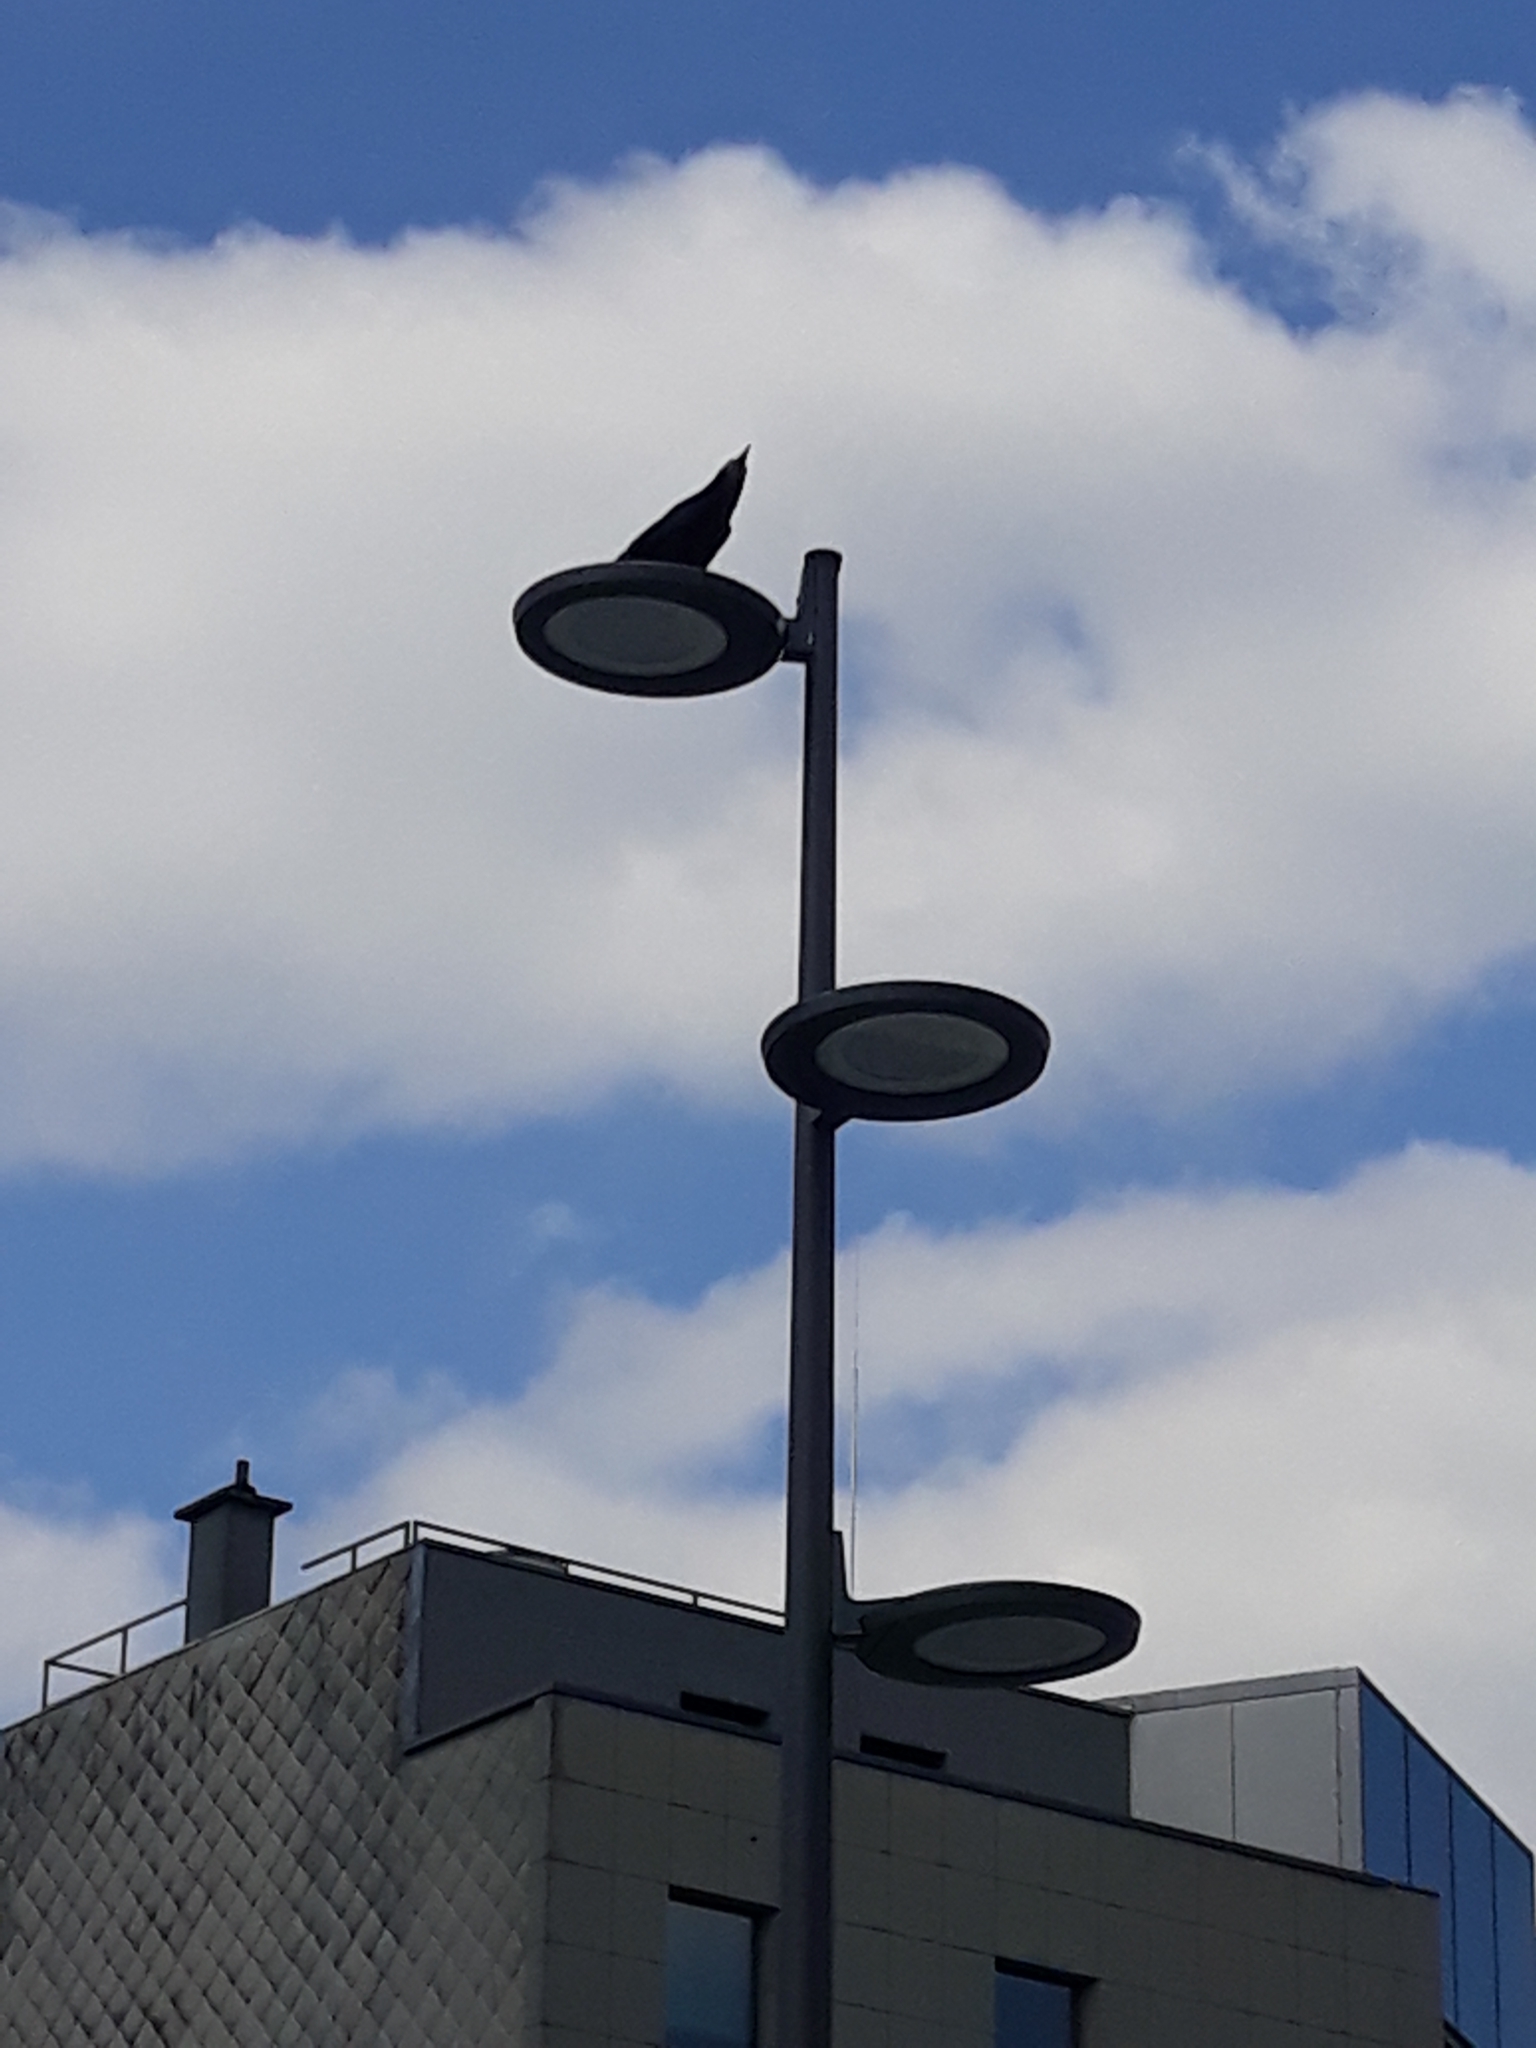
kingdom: Animalia
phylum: Chordata
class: Aves
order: Passeriformes
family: Corvidae
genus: Corvus
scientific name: Corvus frugilegus
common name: Rook
